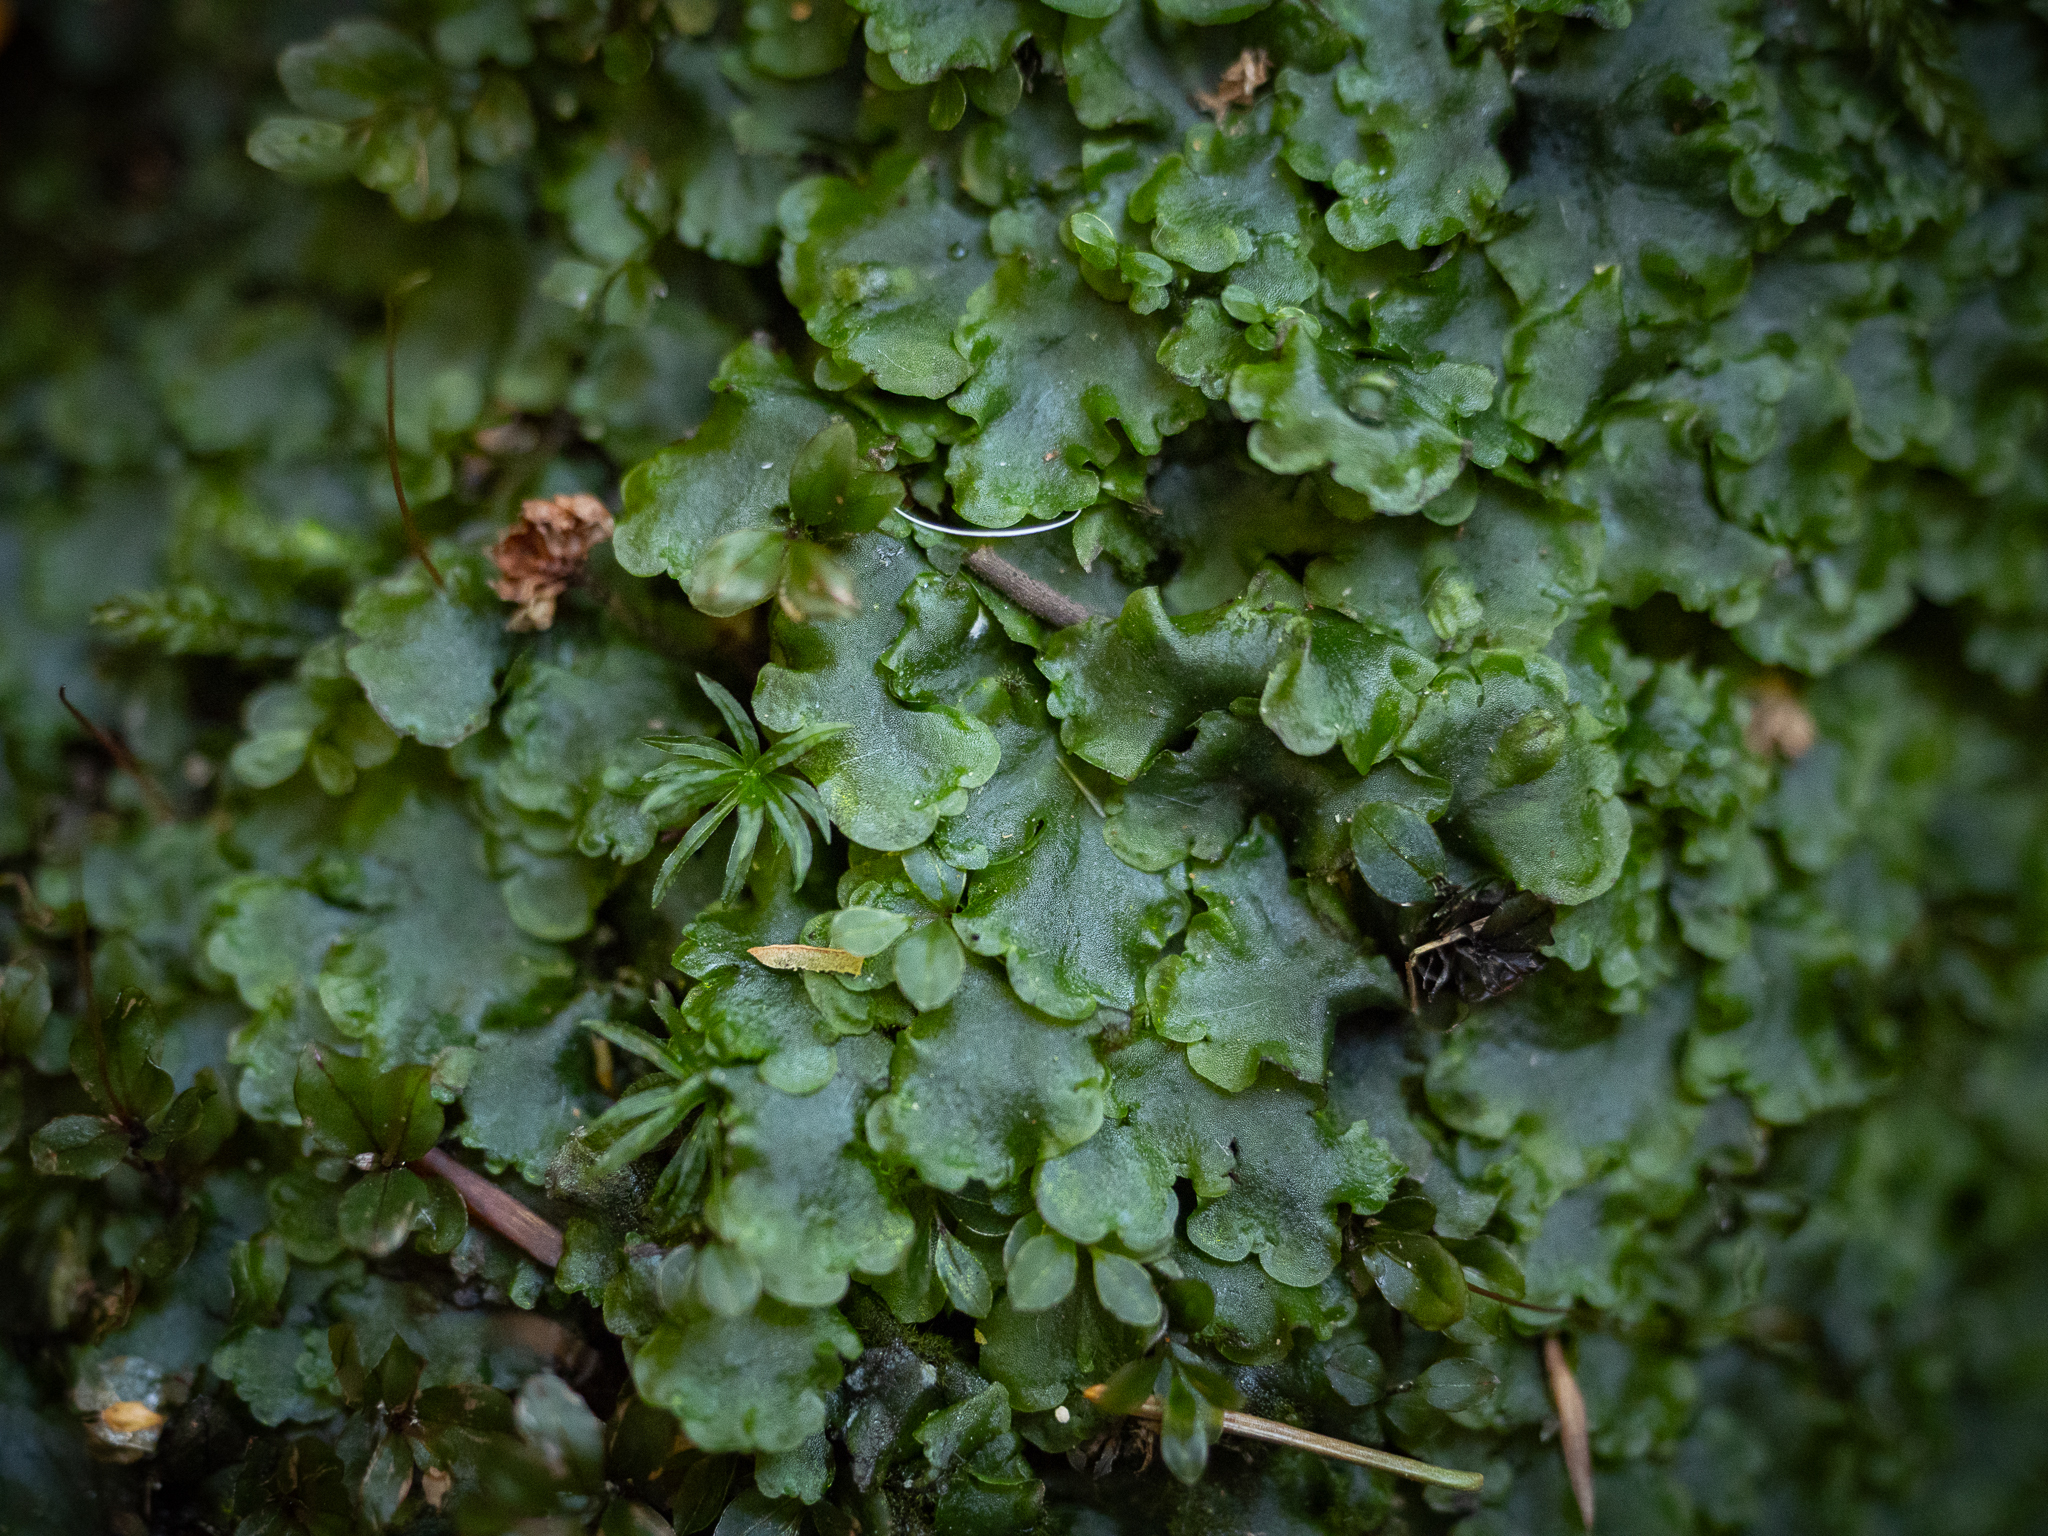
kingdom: Plantae
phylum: Marchantiophyta
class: Jungermanniopsida
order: Pelliales
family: Pelliaceae
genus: Pellia
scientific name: Pellia epiphylla
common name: Common pellia
